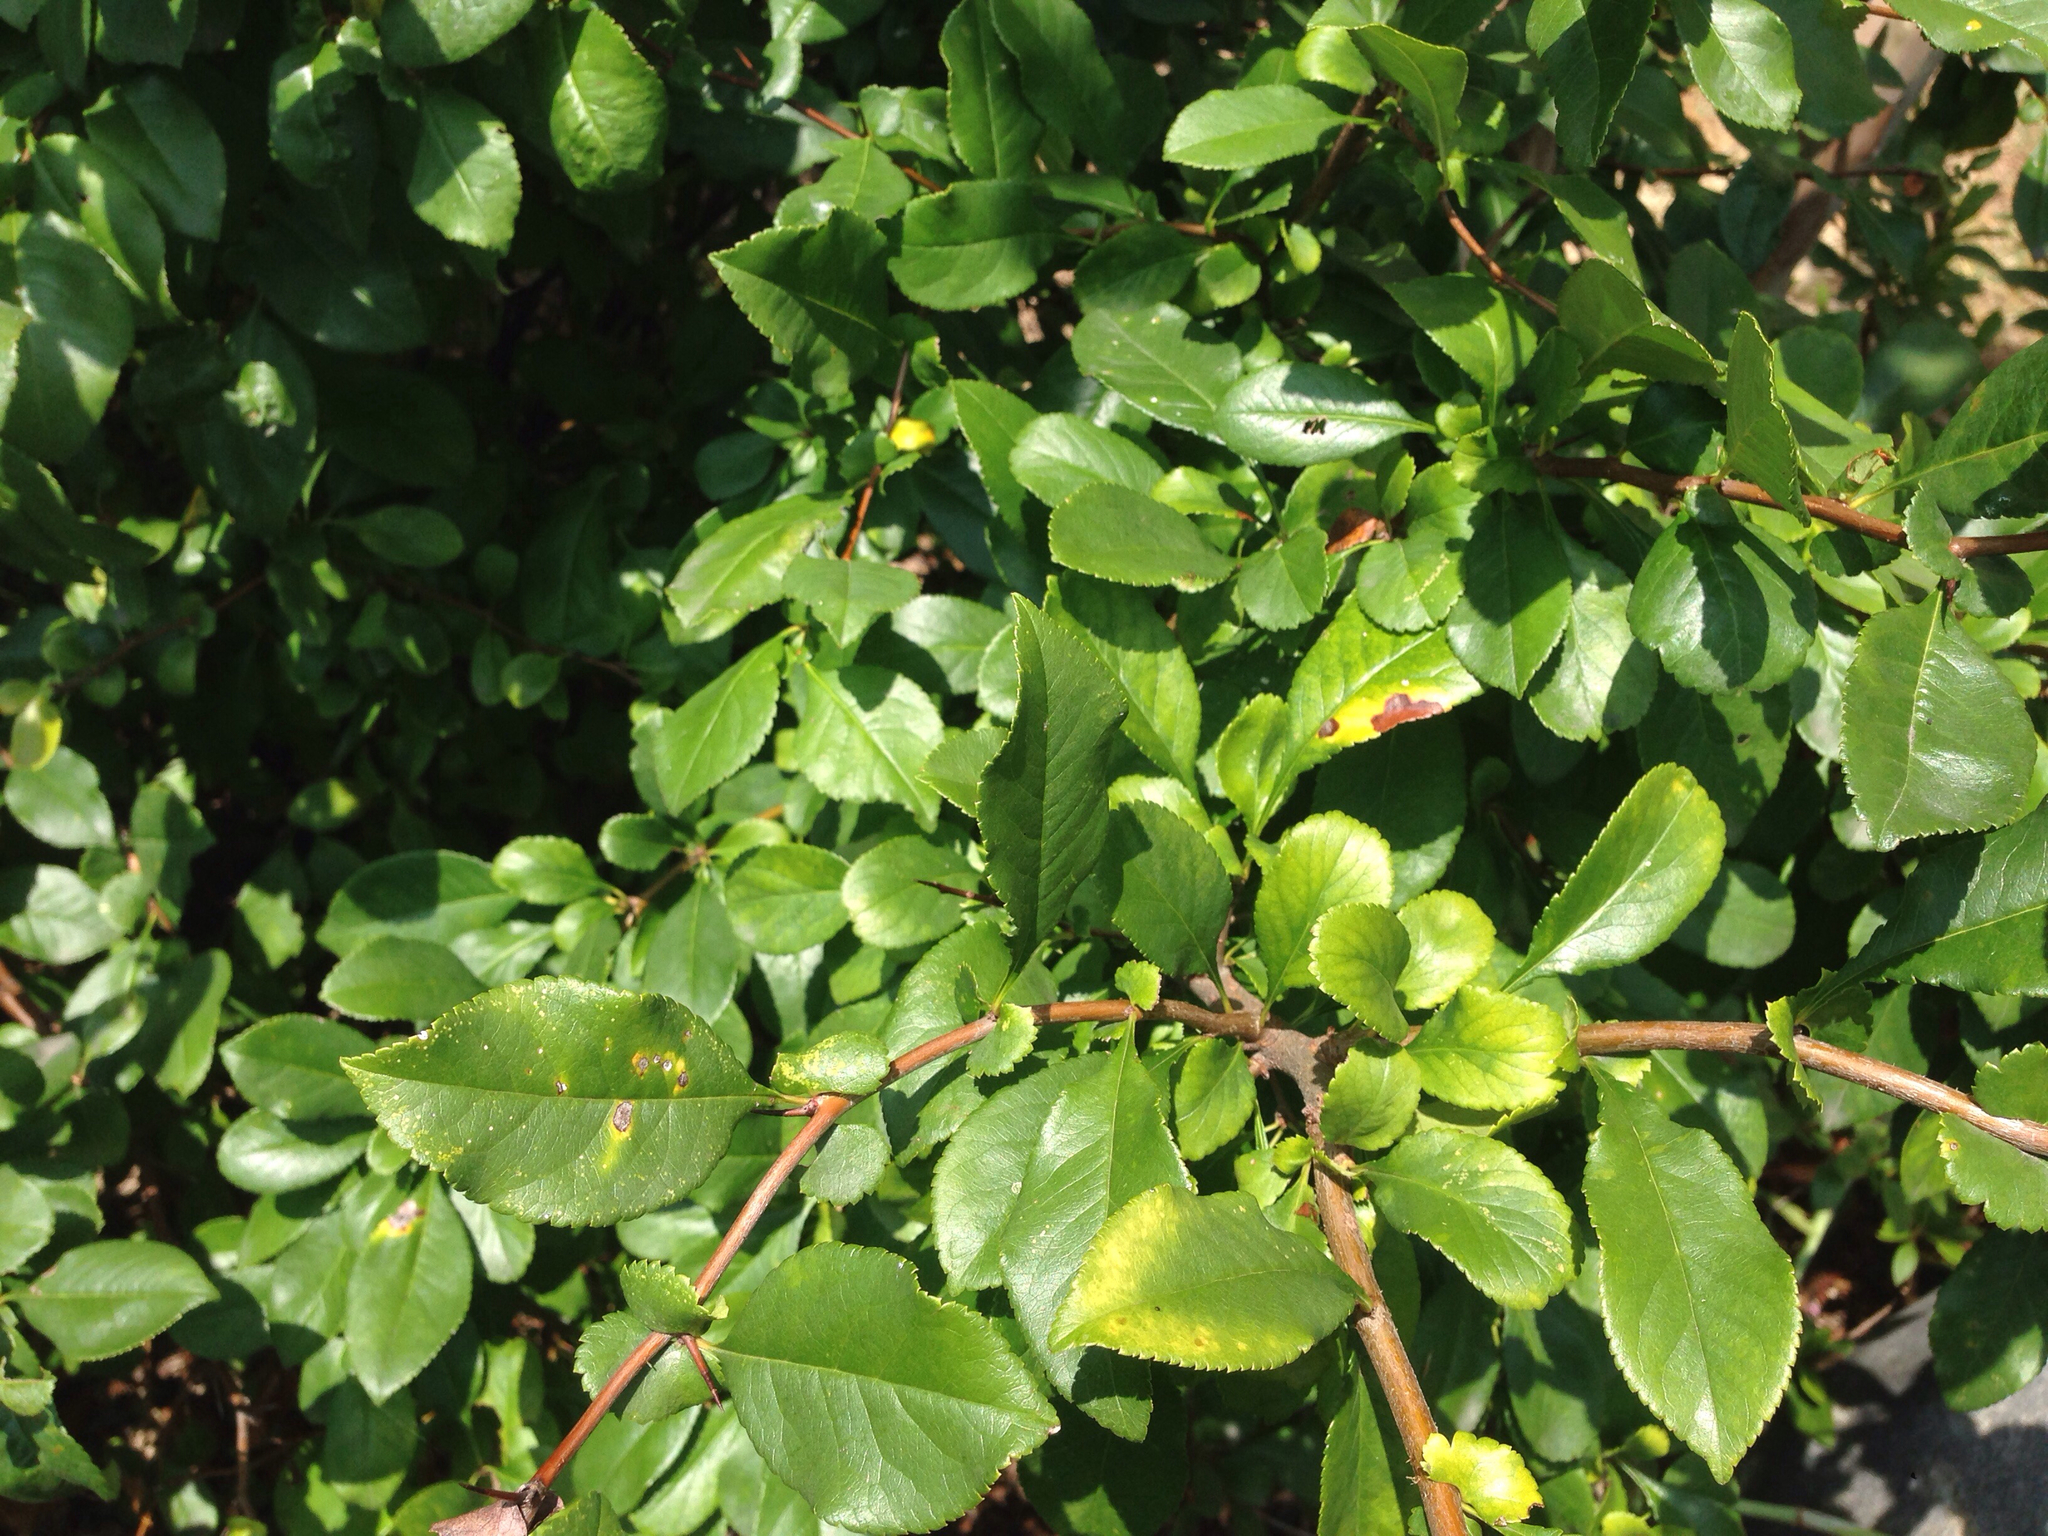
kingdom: Plantae
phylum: Tracheophyta
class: Magnoliopsida
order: Rosales
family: Rosaceae
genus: Chaenomeles
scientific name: Chaenomeles speciosa
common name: Japanese quince
